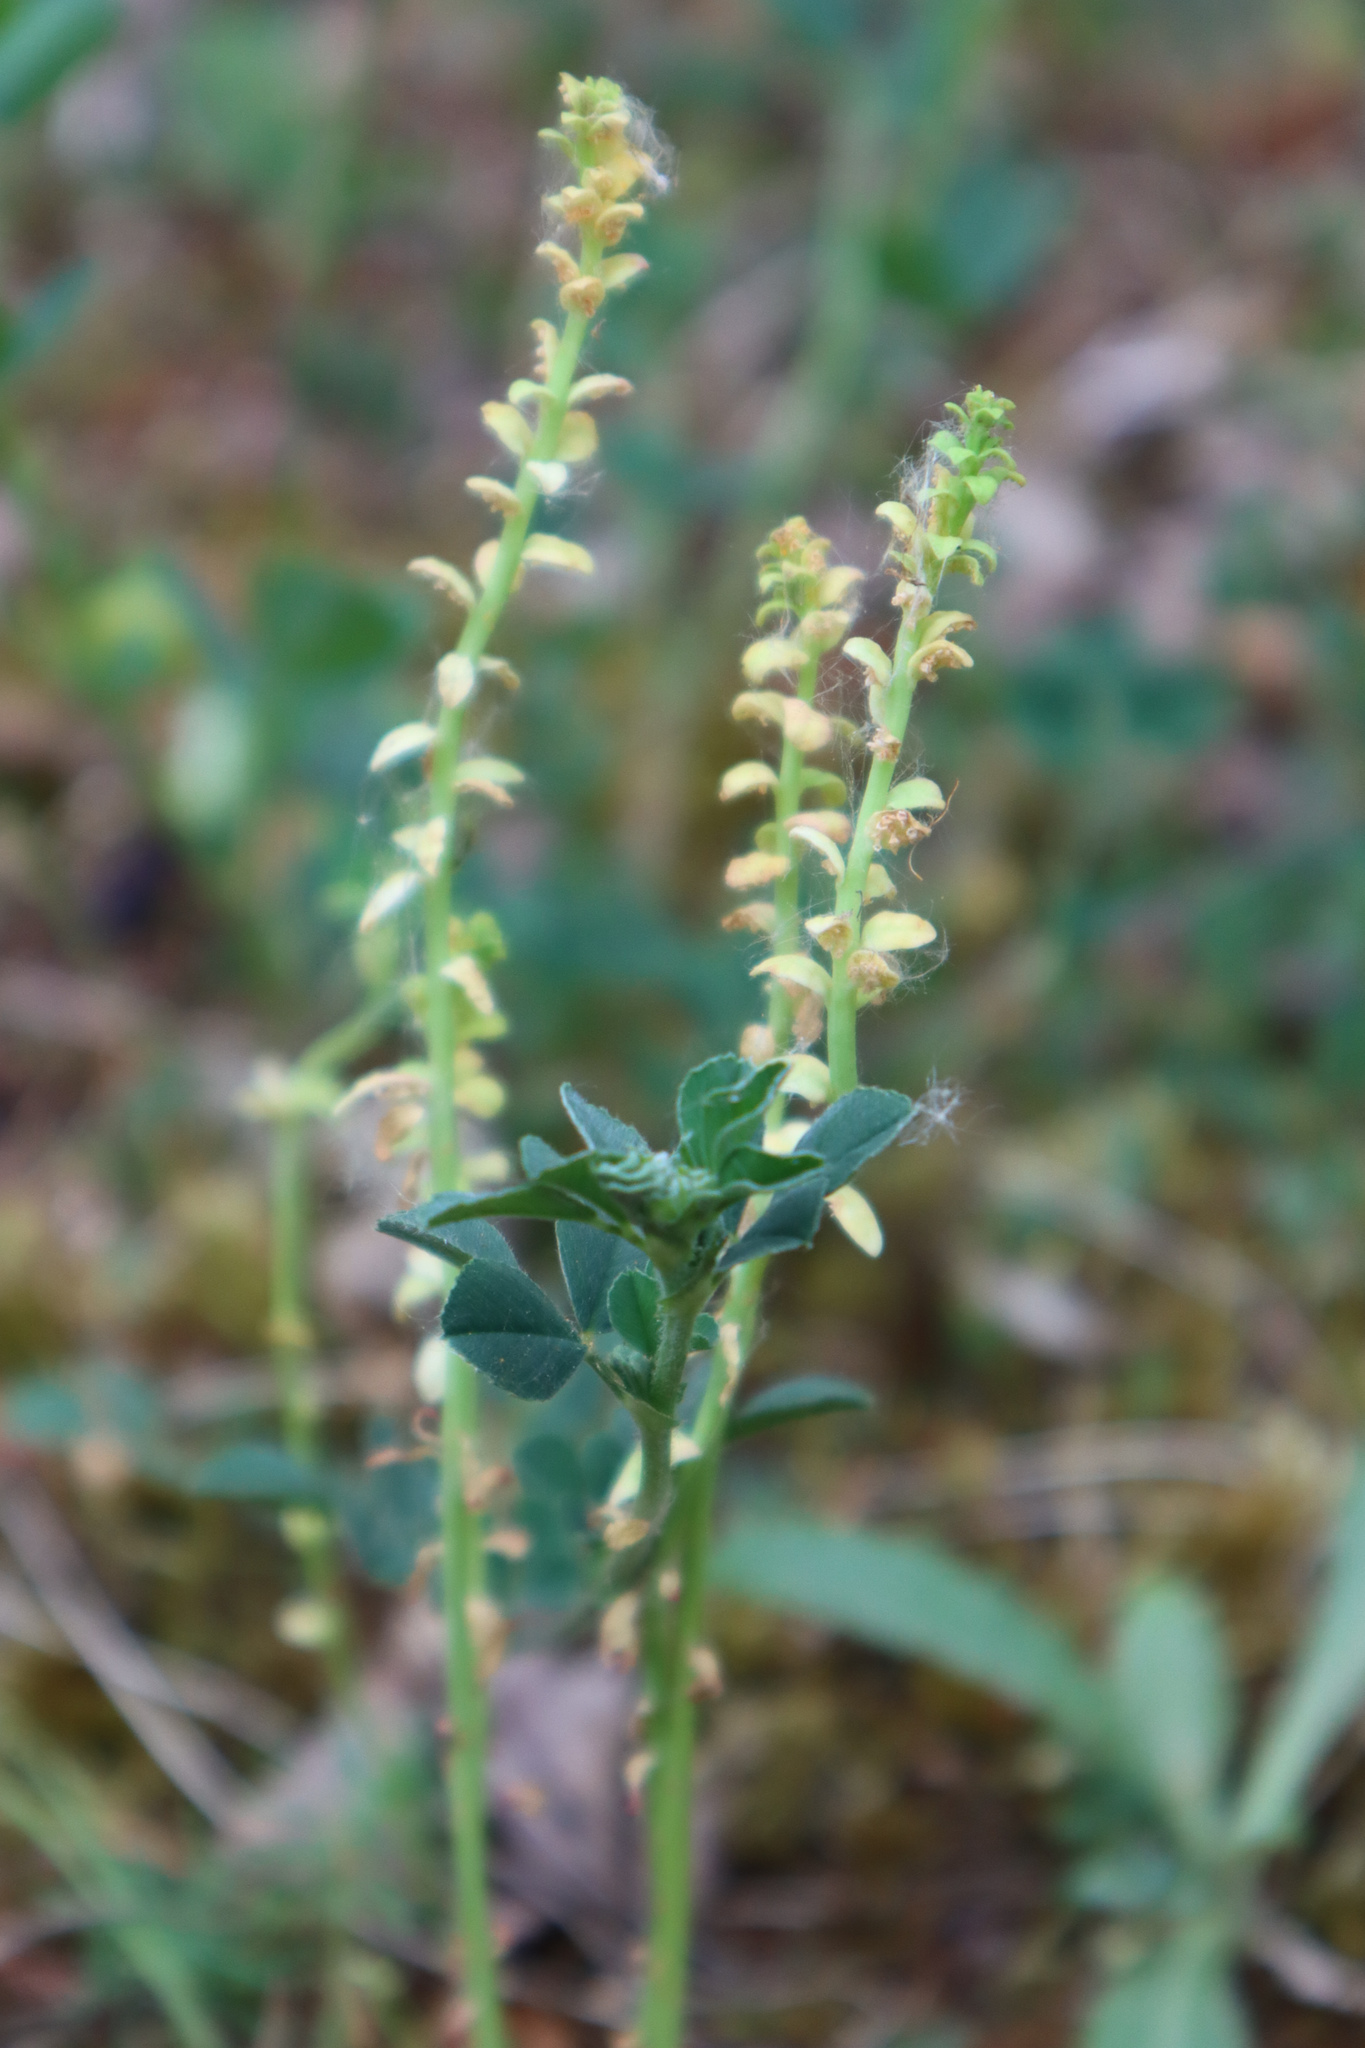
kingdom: Plantae
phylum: Tracheophyta
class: Magnoliopsida
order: Malpighiales
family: Euphorbiaceae
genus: Euphorbia
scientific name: Euphorbia cyparissias
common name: Cypress spurge
